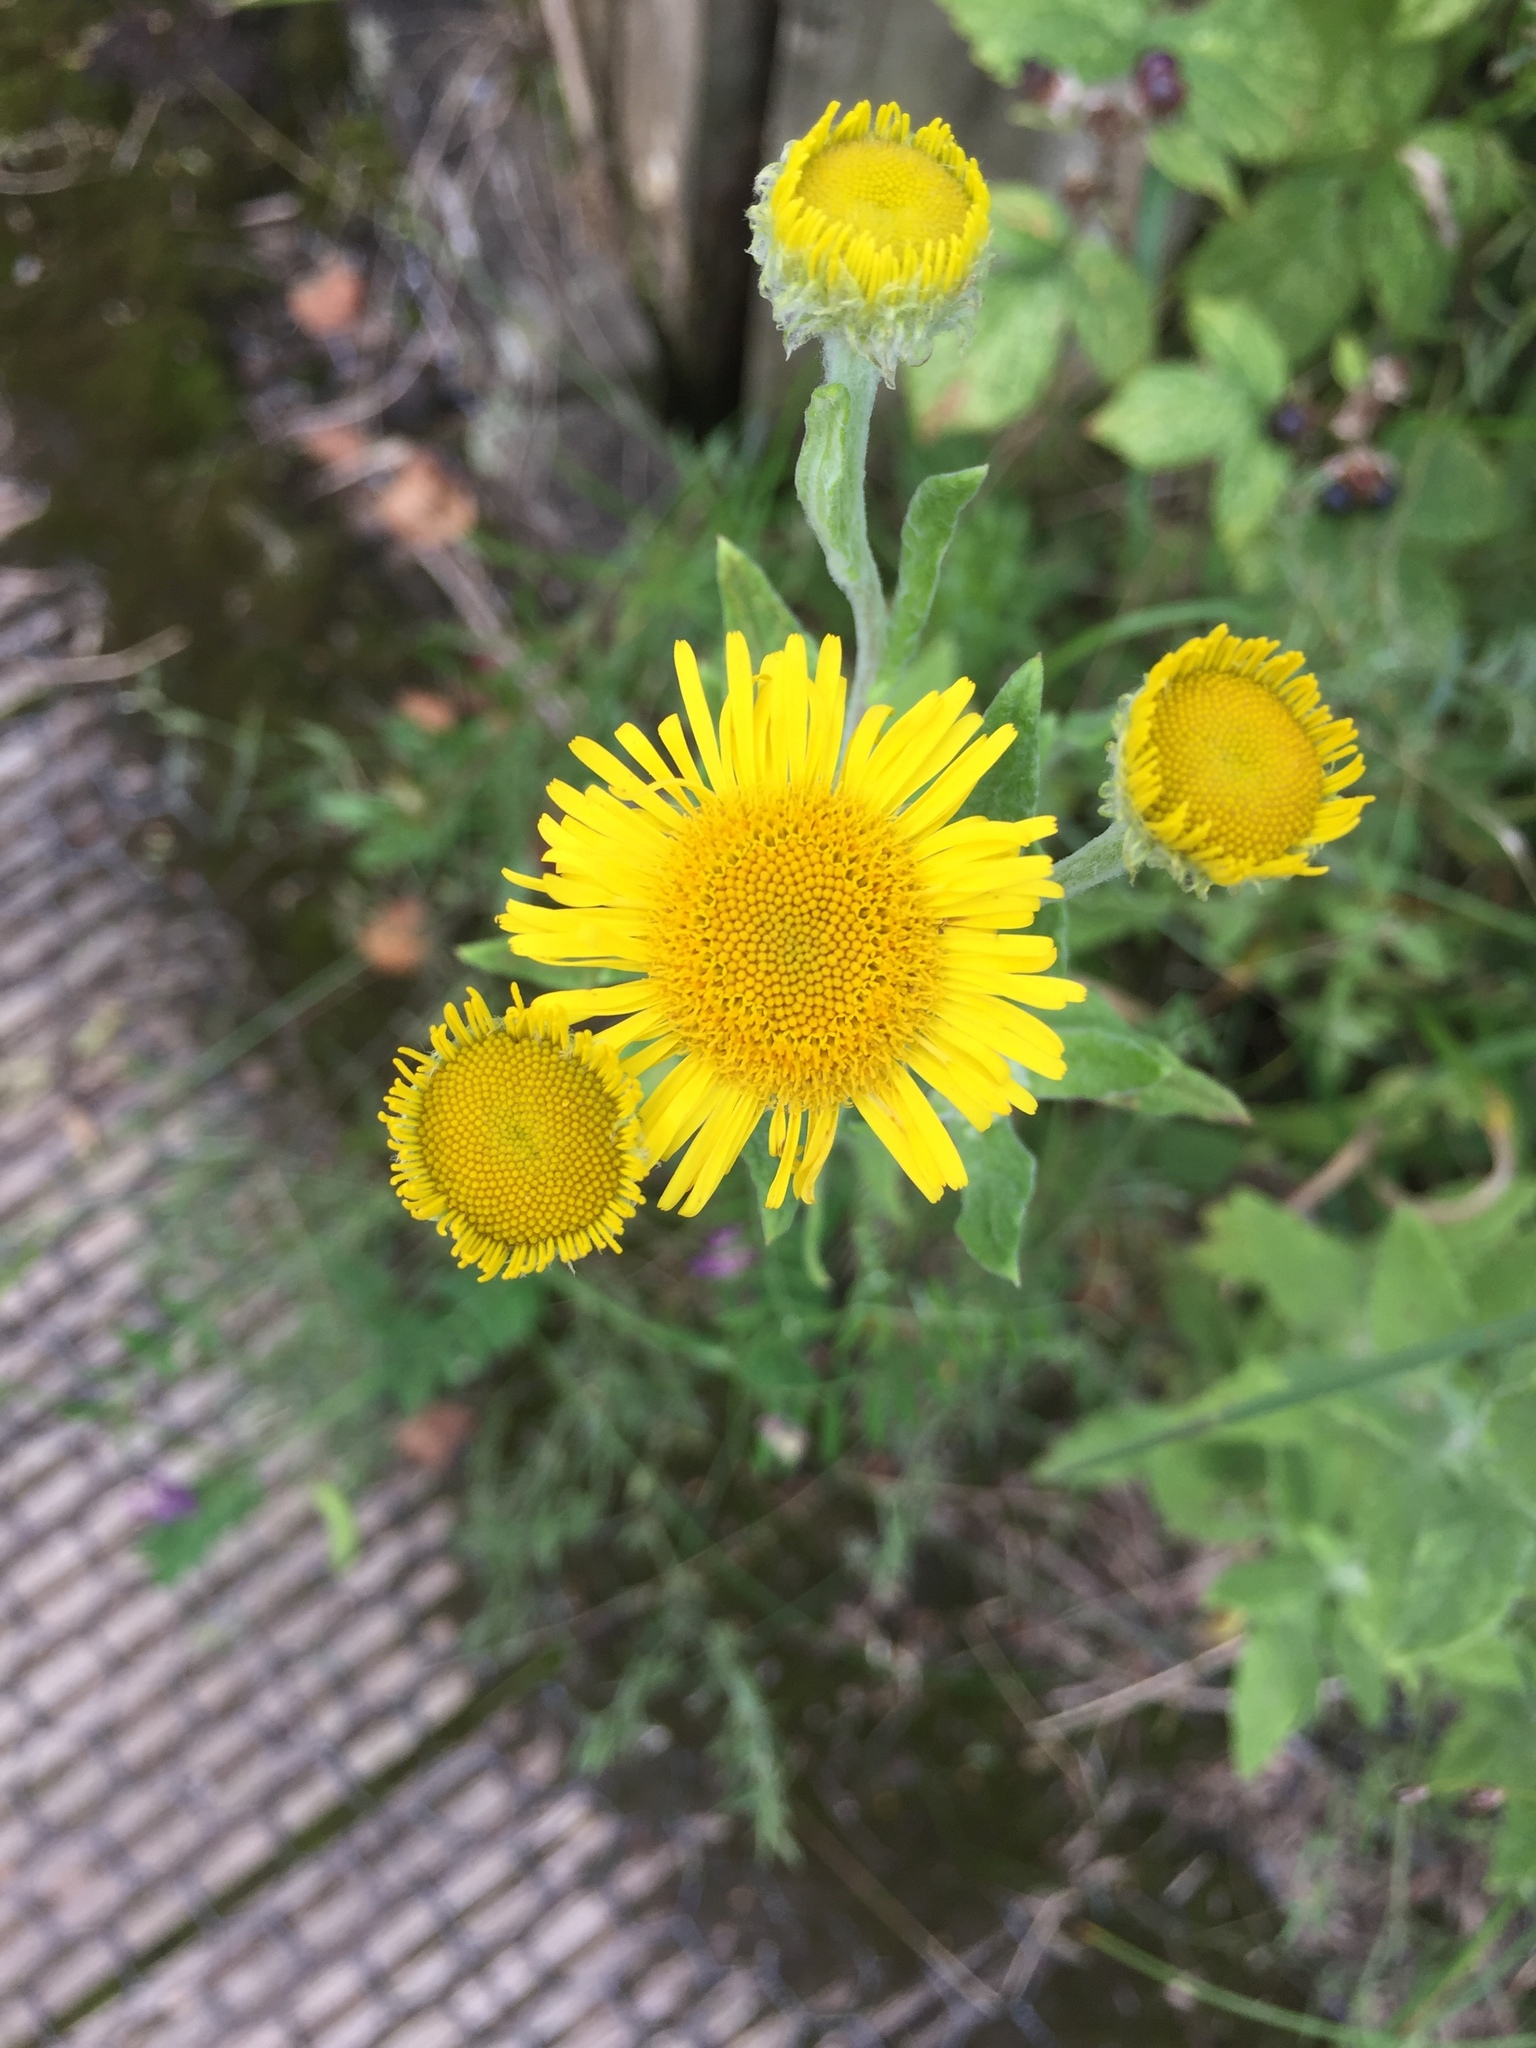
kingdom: Plantae
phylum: Tracheophyta
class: Magnoliopsida
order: Asterales
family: Asteraceae
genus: Pulicaria
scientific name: Pulicaria dysenterica
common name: Common fleabane
